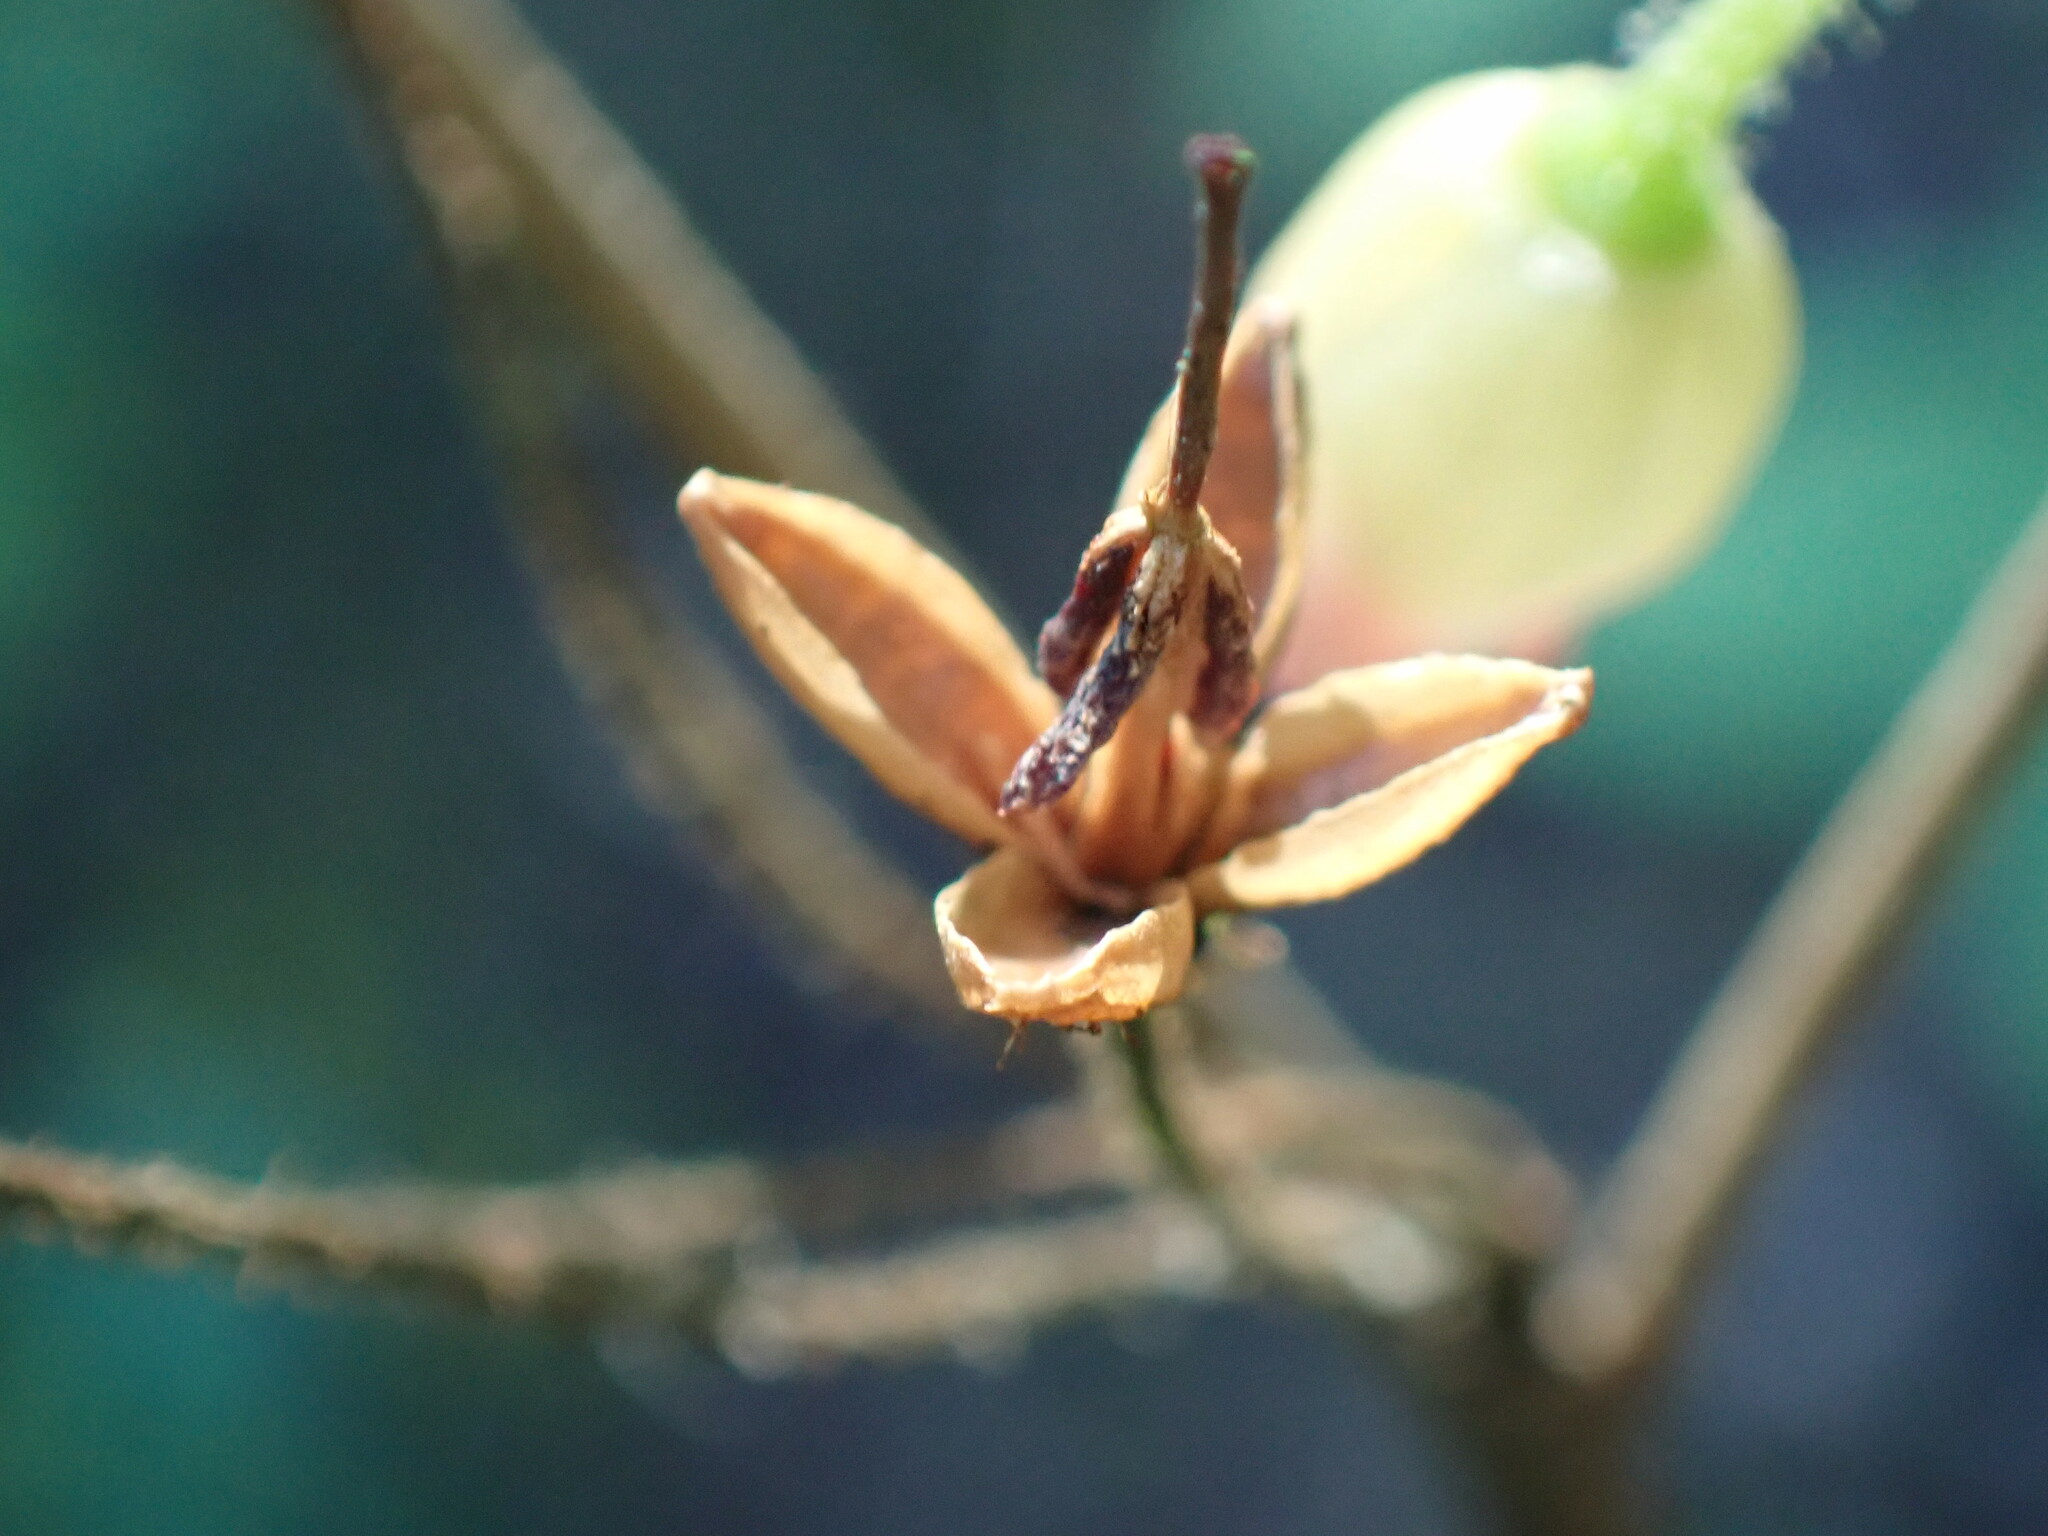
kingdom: Plantae
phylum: Tracheophyta
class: Magnoliopsida
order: Ericales
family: Ericaceae
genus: Rhododendron
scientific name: Rhododendron menziesii
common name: Pacific menziesia
